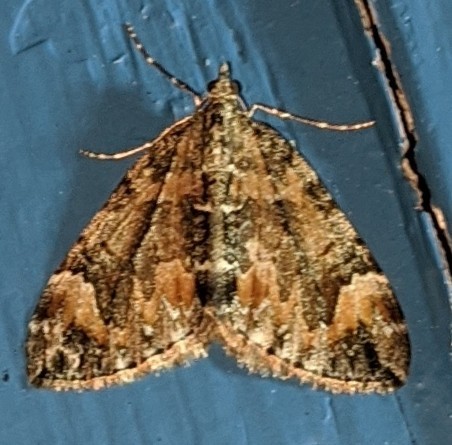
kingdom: Animalia
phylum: Arthropoda
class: Insecta
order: Lepidoptera
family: Geometridae
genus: Dysstroma
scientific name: Dysstroma citrata
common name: Dark marbled carpet
